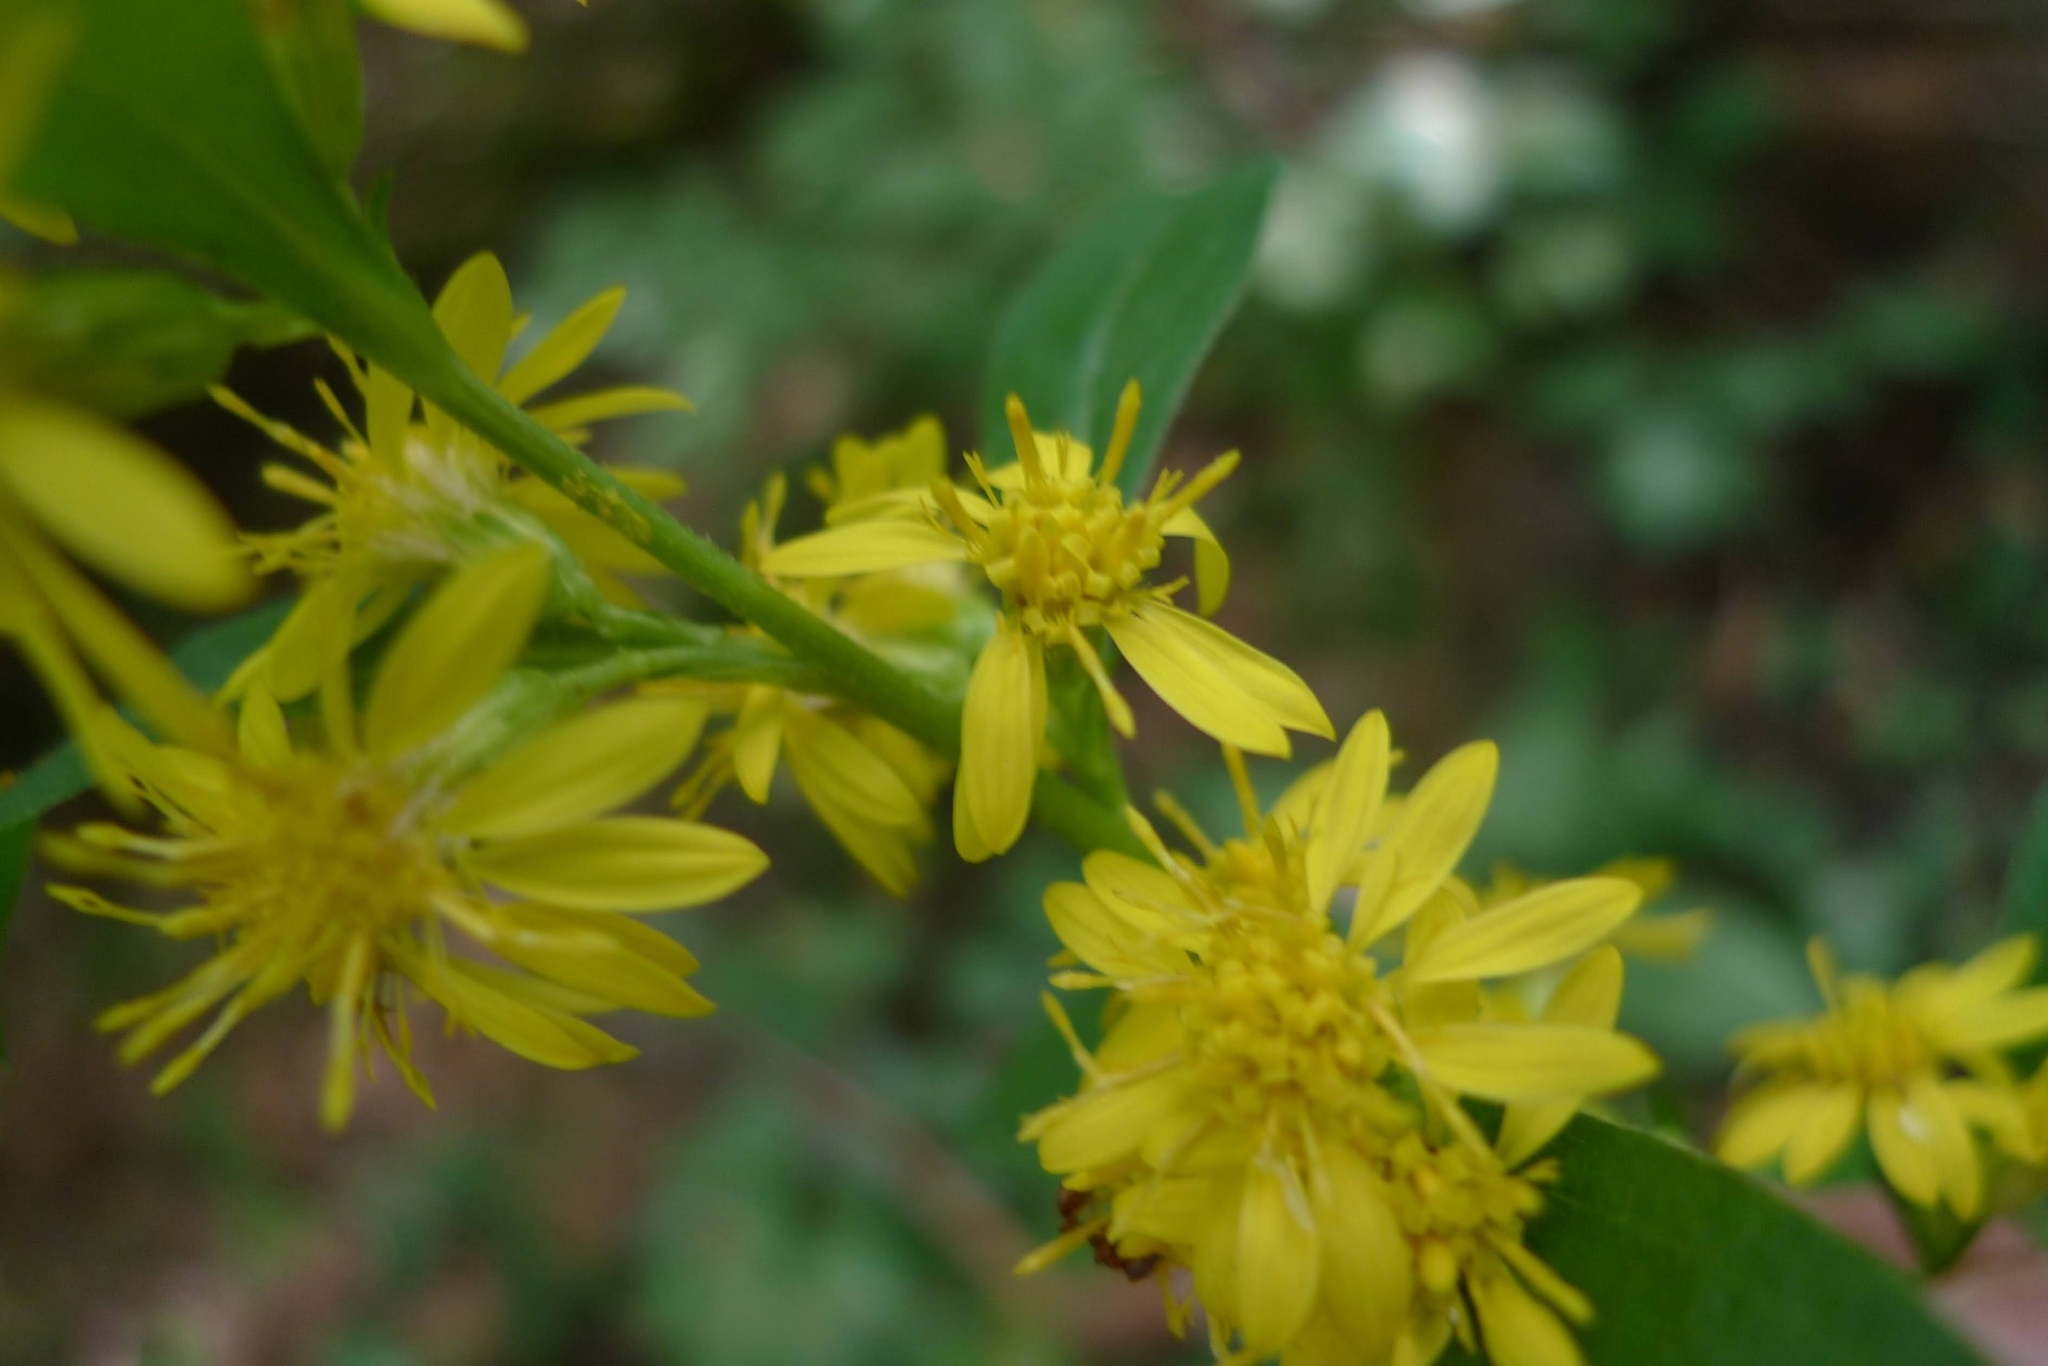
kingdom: Plantae
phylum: Tracheophyta
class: Magnoliopsida
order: Asterales
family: Asteraceae
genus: Solidago
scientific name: Solidago virgaurea
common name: Goldenrod
